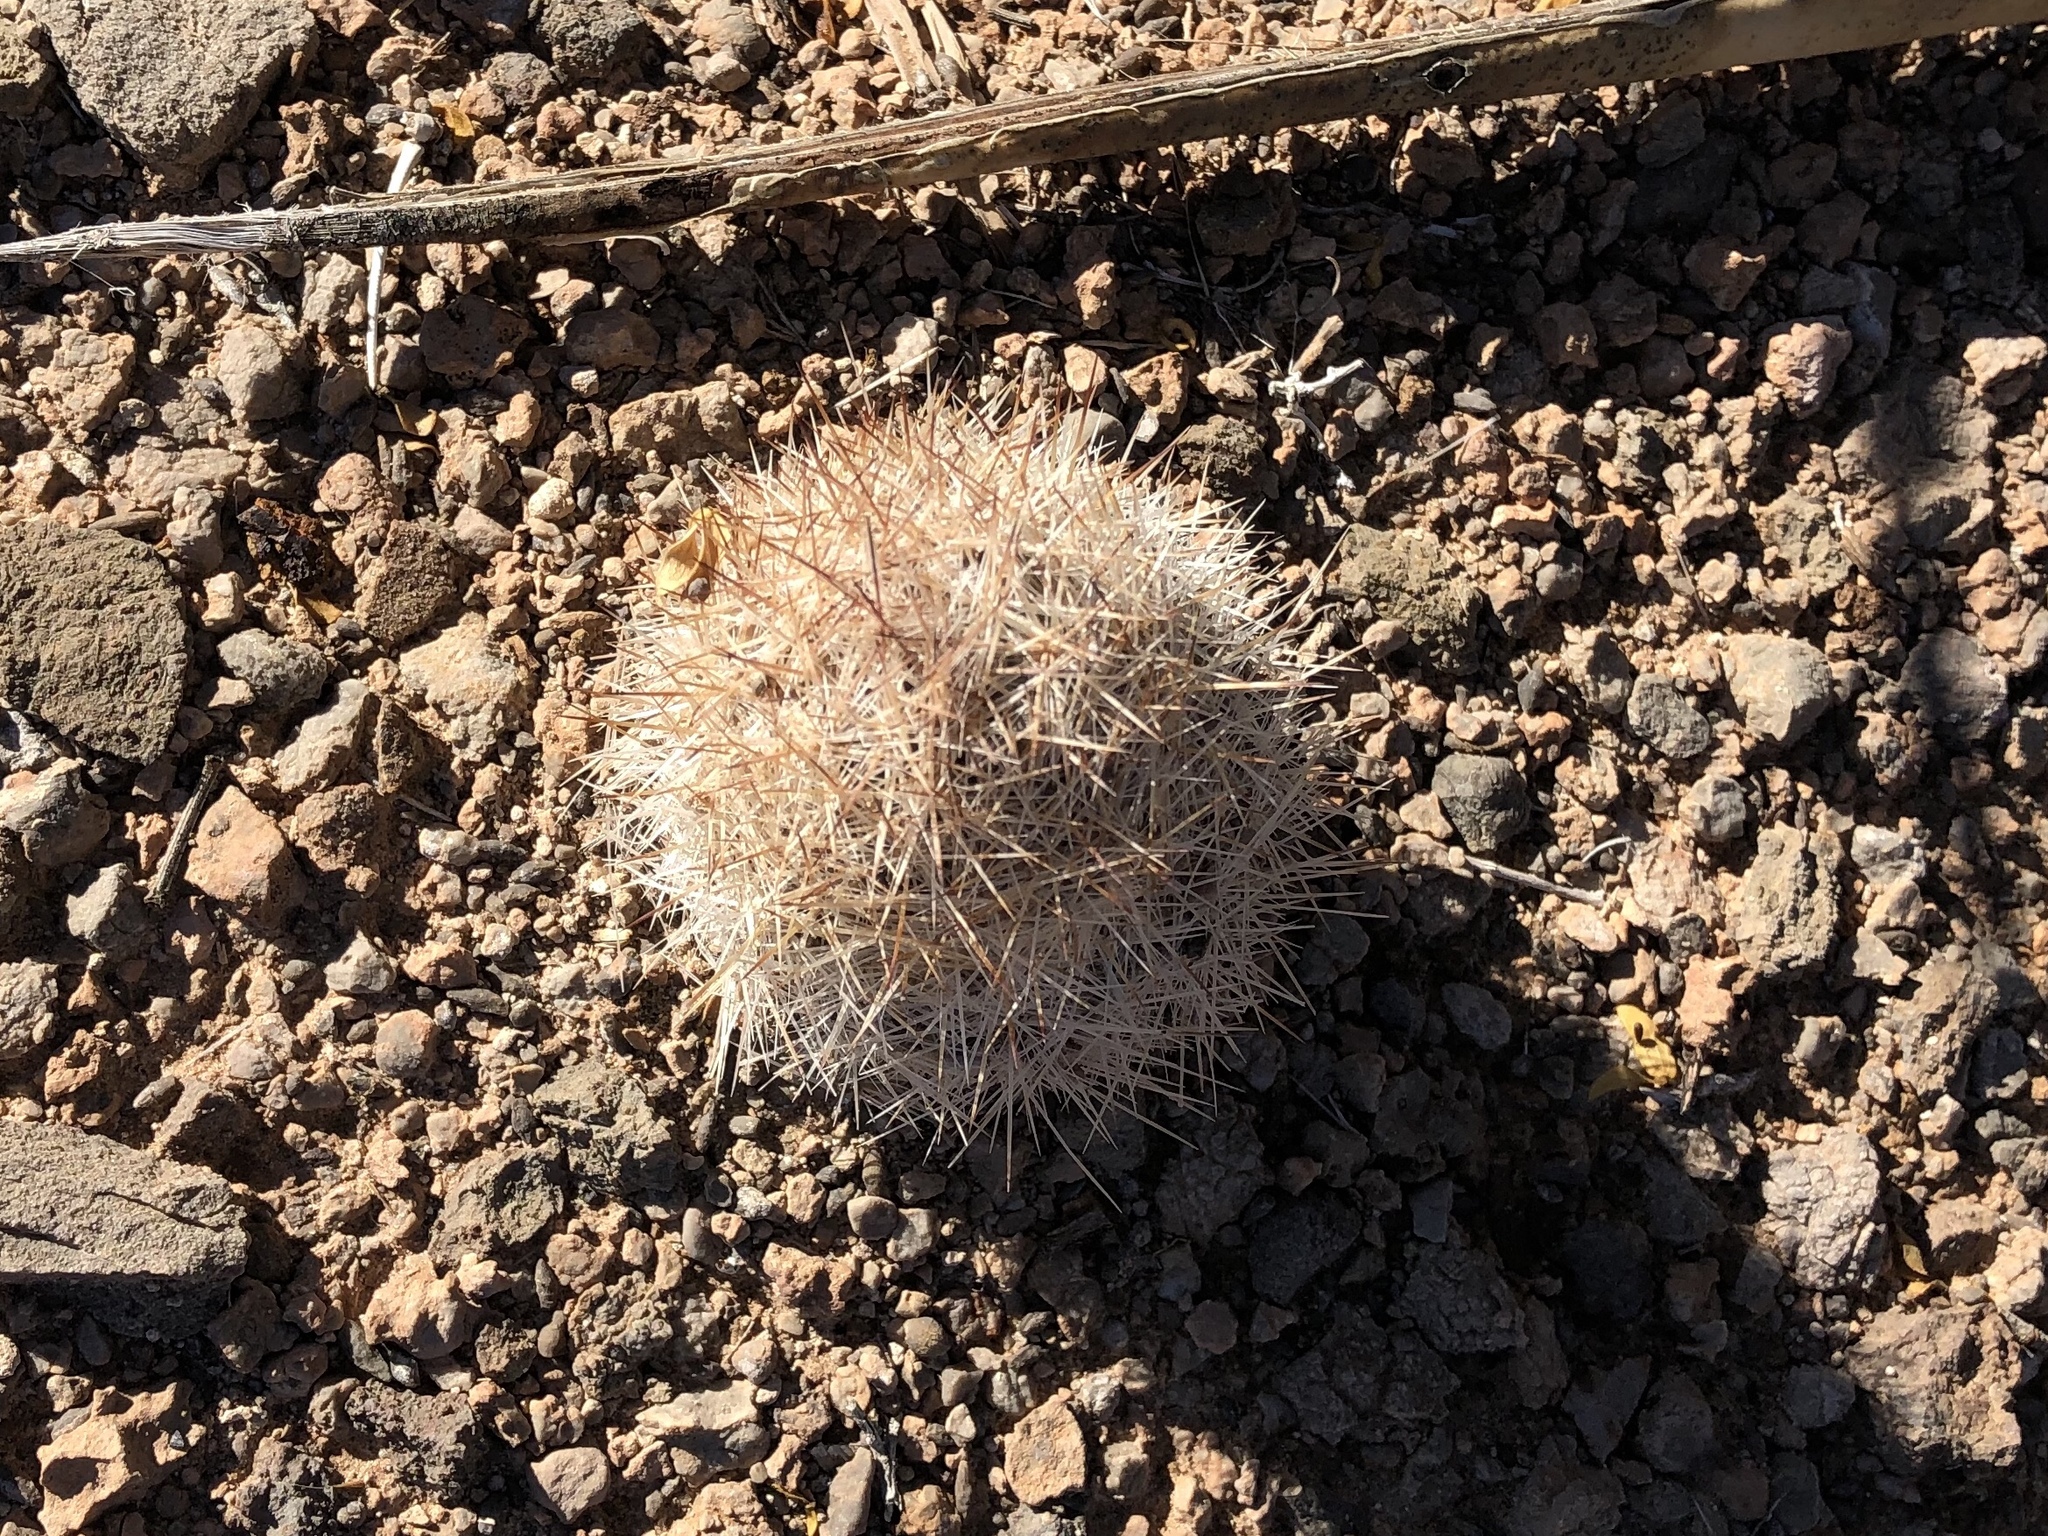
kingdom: Plantae
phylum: Tracheophyta
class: Magnoliopsida
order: Caryophyllales
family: Cactaceae
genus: Pelecyphora
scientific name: Pelecyphora vivipara
